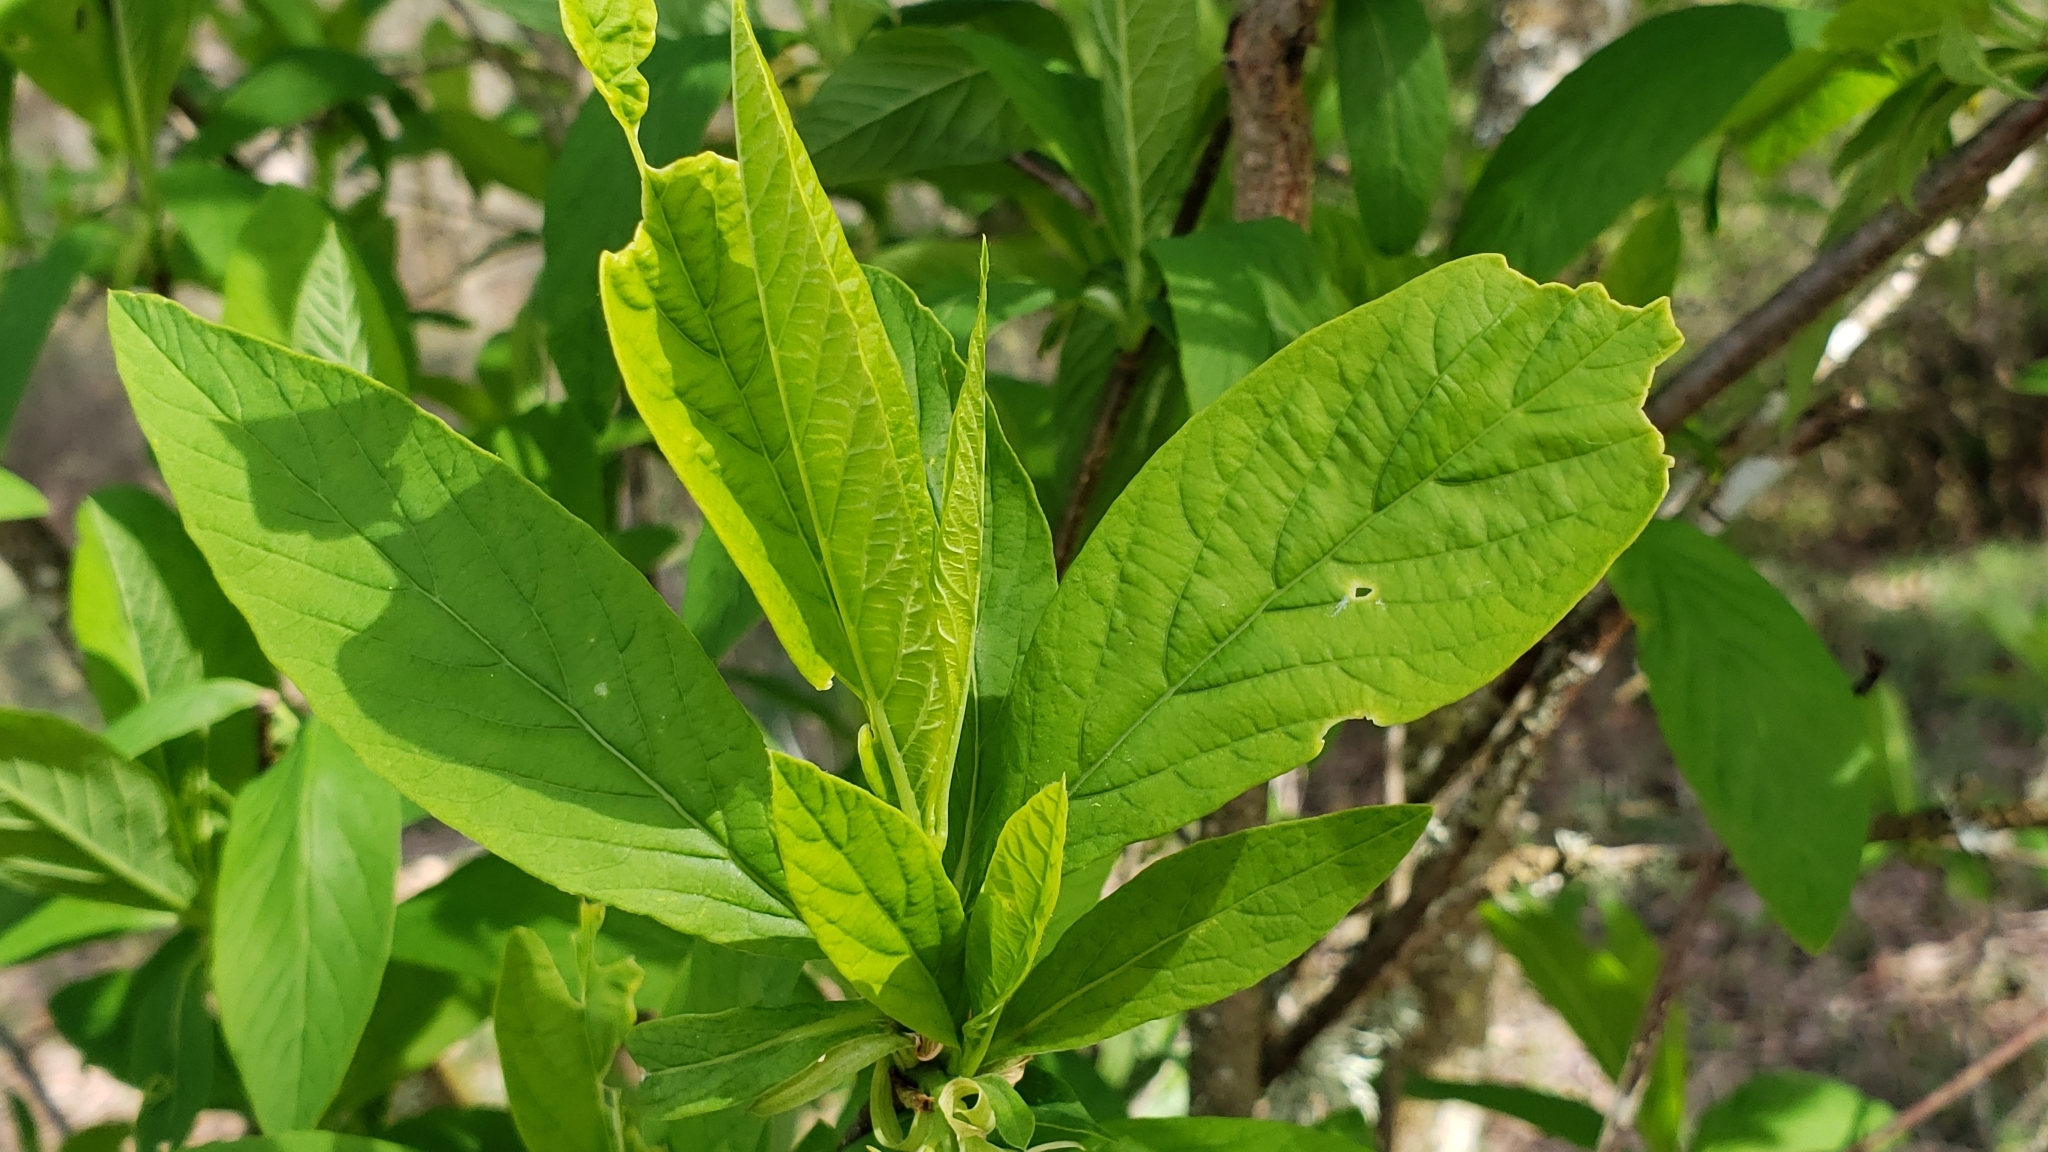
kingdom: Plantae
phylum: Tracheophyta
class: Magnoliopsida
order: Rosales
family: Rosaceae
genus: Oemleria
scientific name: Oemleria cerasiformis
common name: Osoberry
